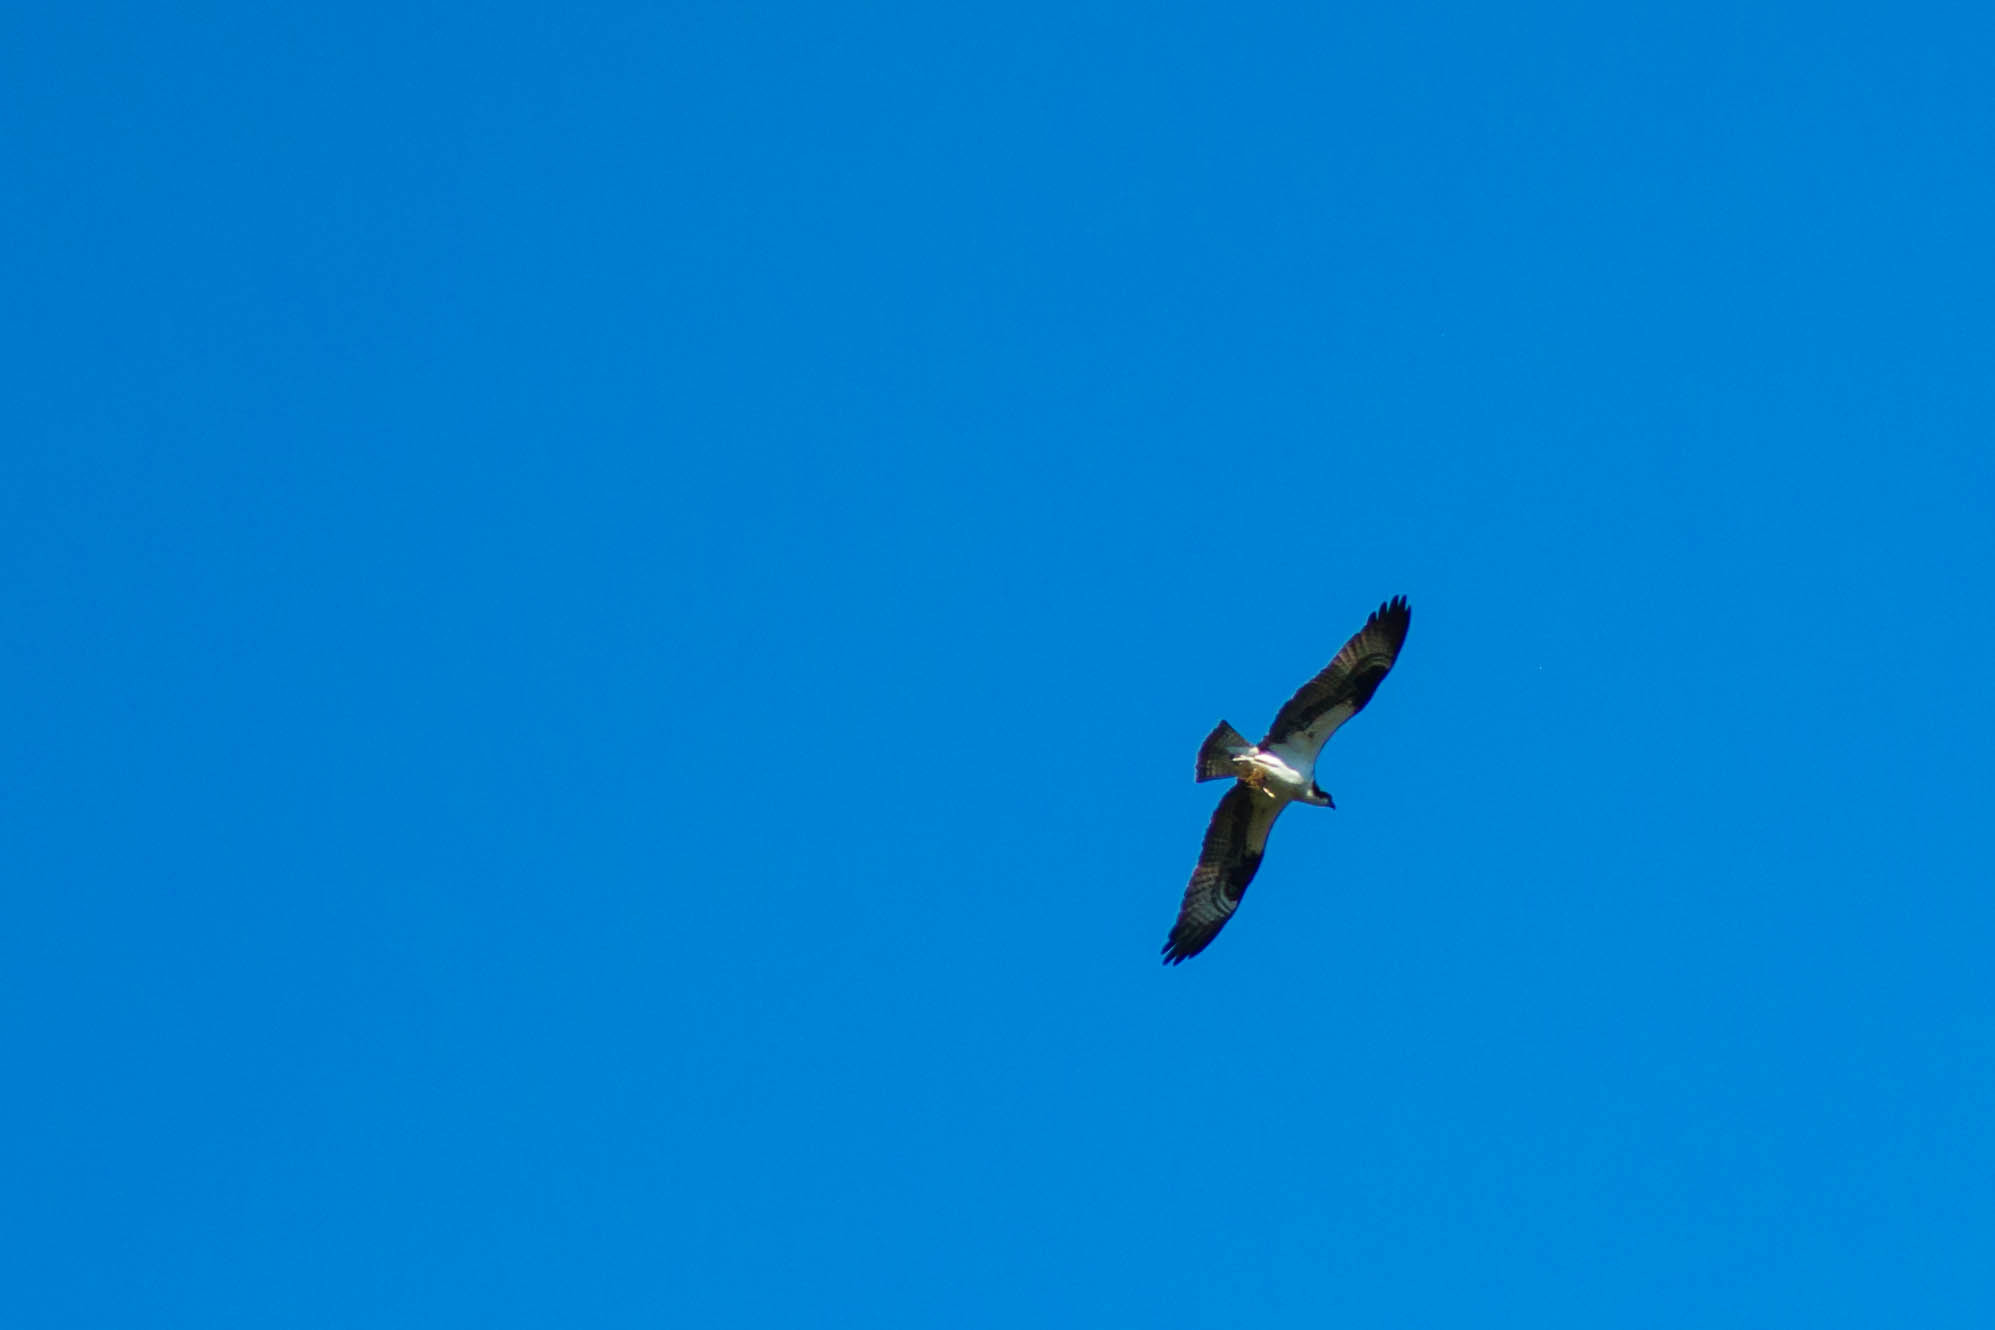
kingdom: Animalia
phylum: Chordata
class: Aves
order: Accipitriformes
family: Pandionidae
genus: Pandion
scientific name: Pandion haliaetus
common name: Osprey
